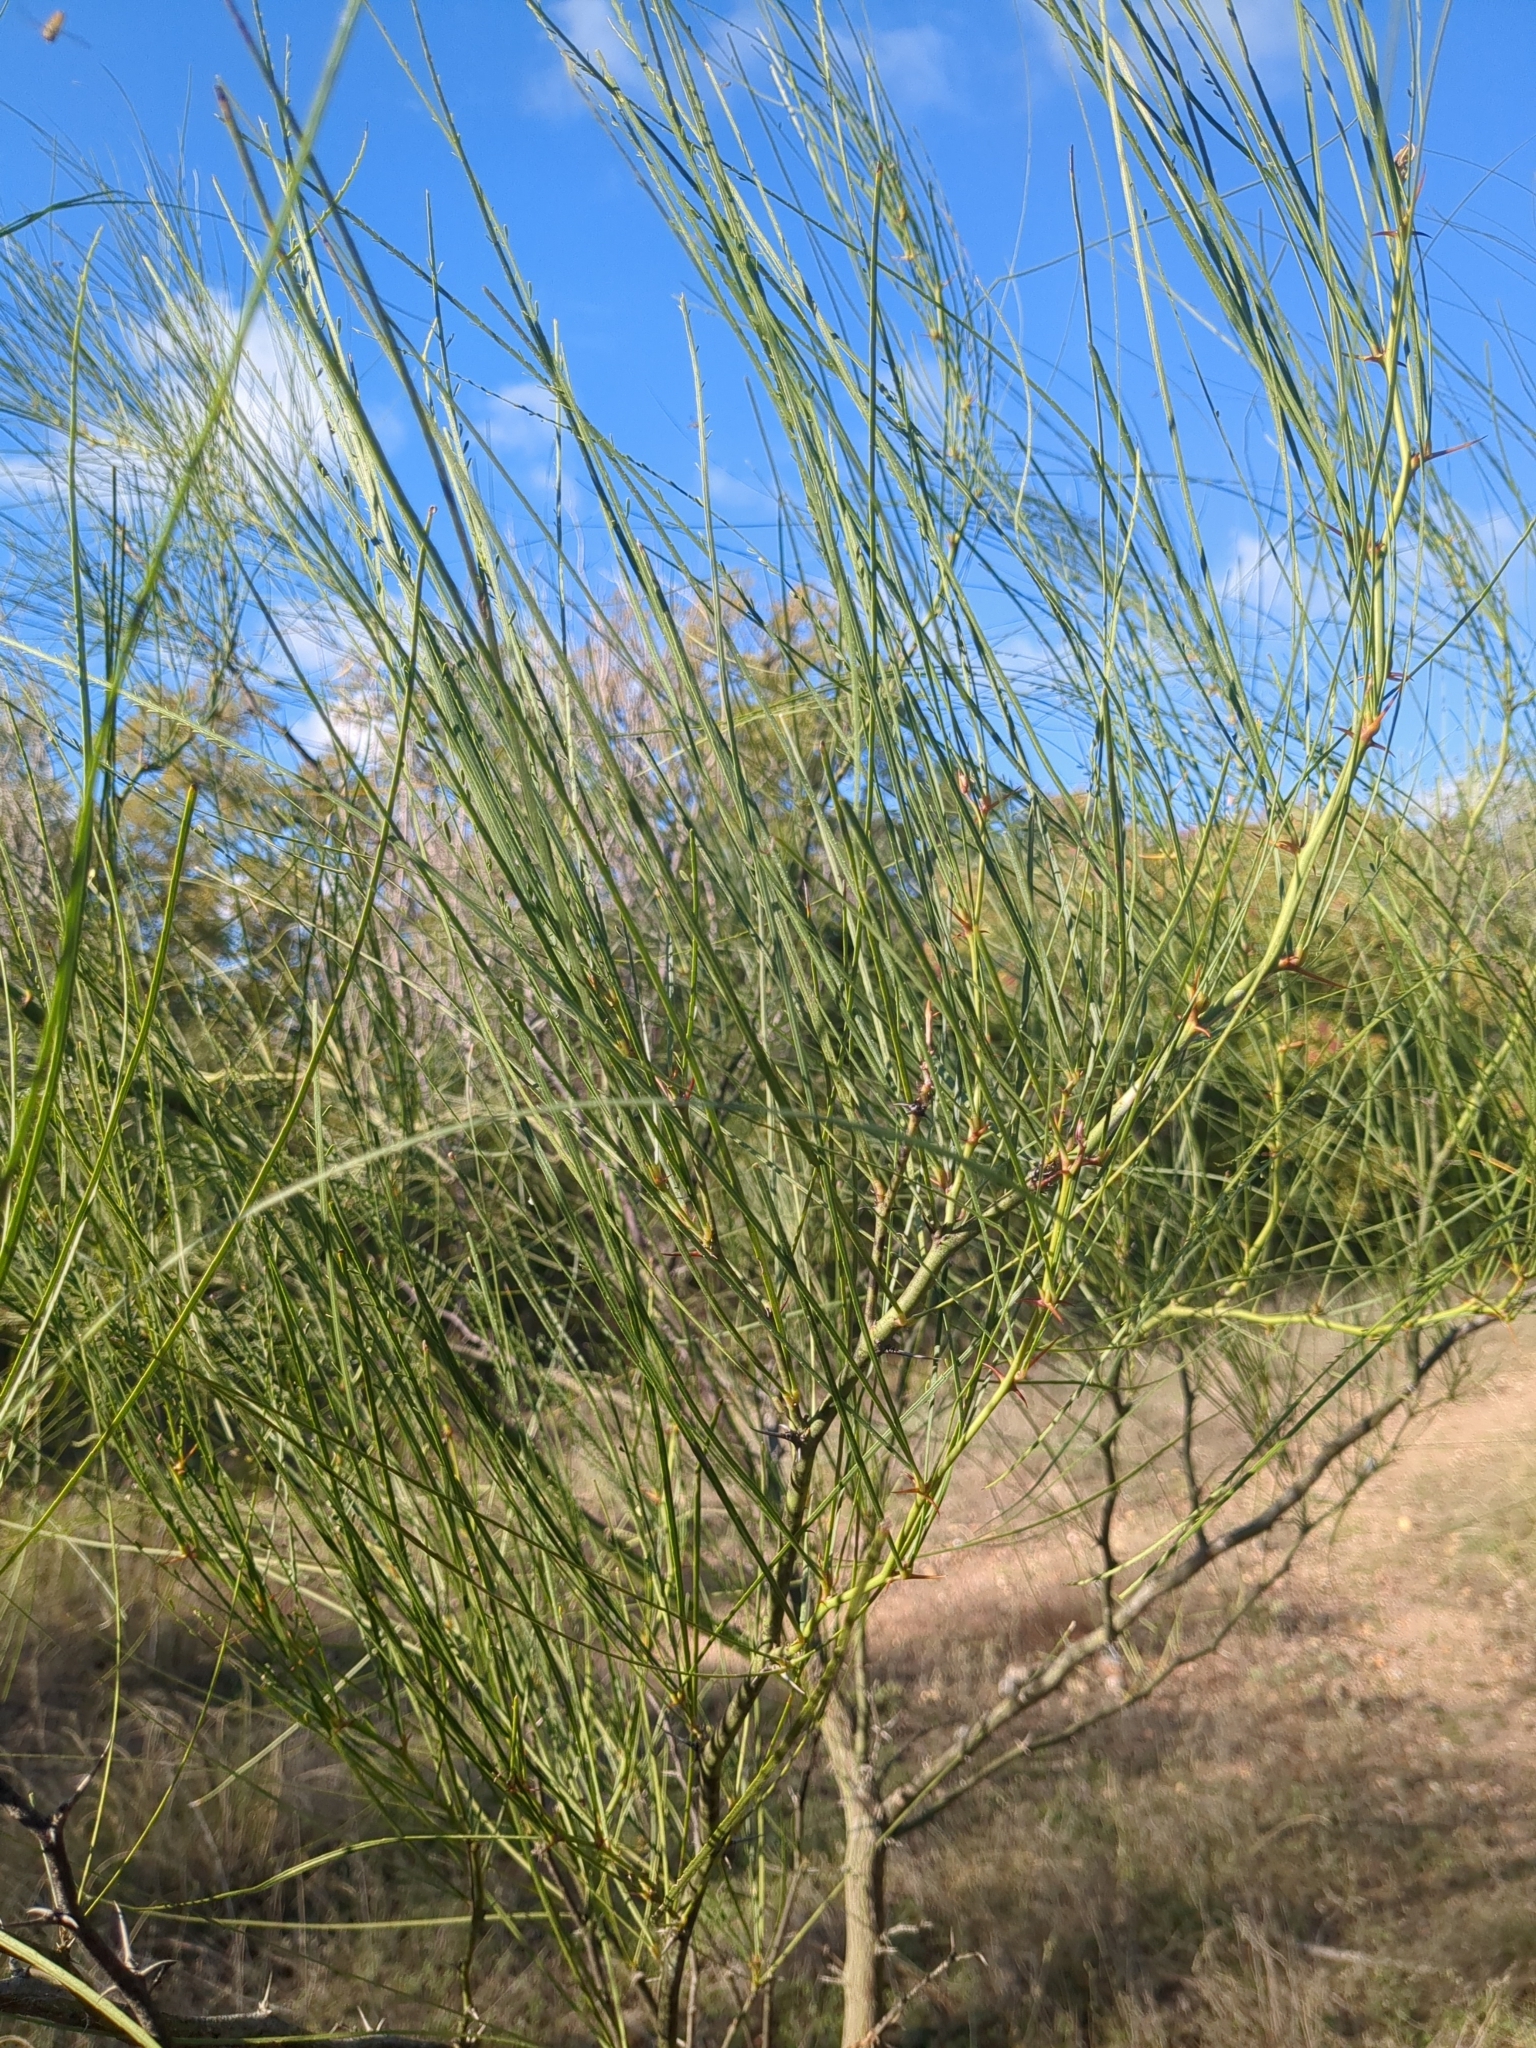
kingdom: Plantae
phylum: Tracheophyta
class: Magnoliopsida
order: Fabales
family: Fabaceae
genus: Parkinsonia
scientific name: Parkinsonia aculeata
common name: Jerusalem thorn
